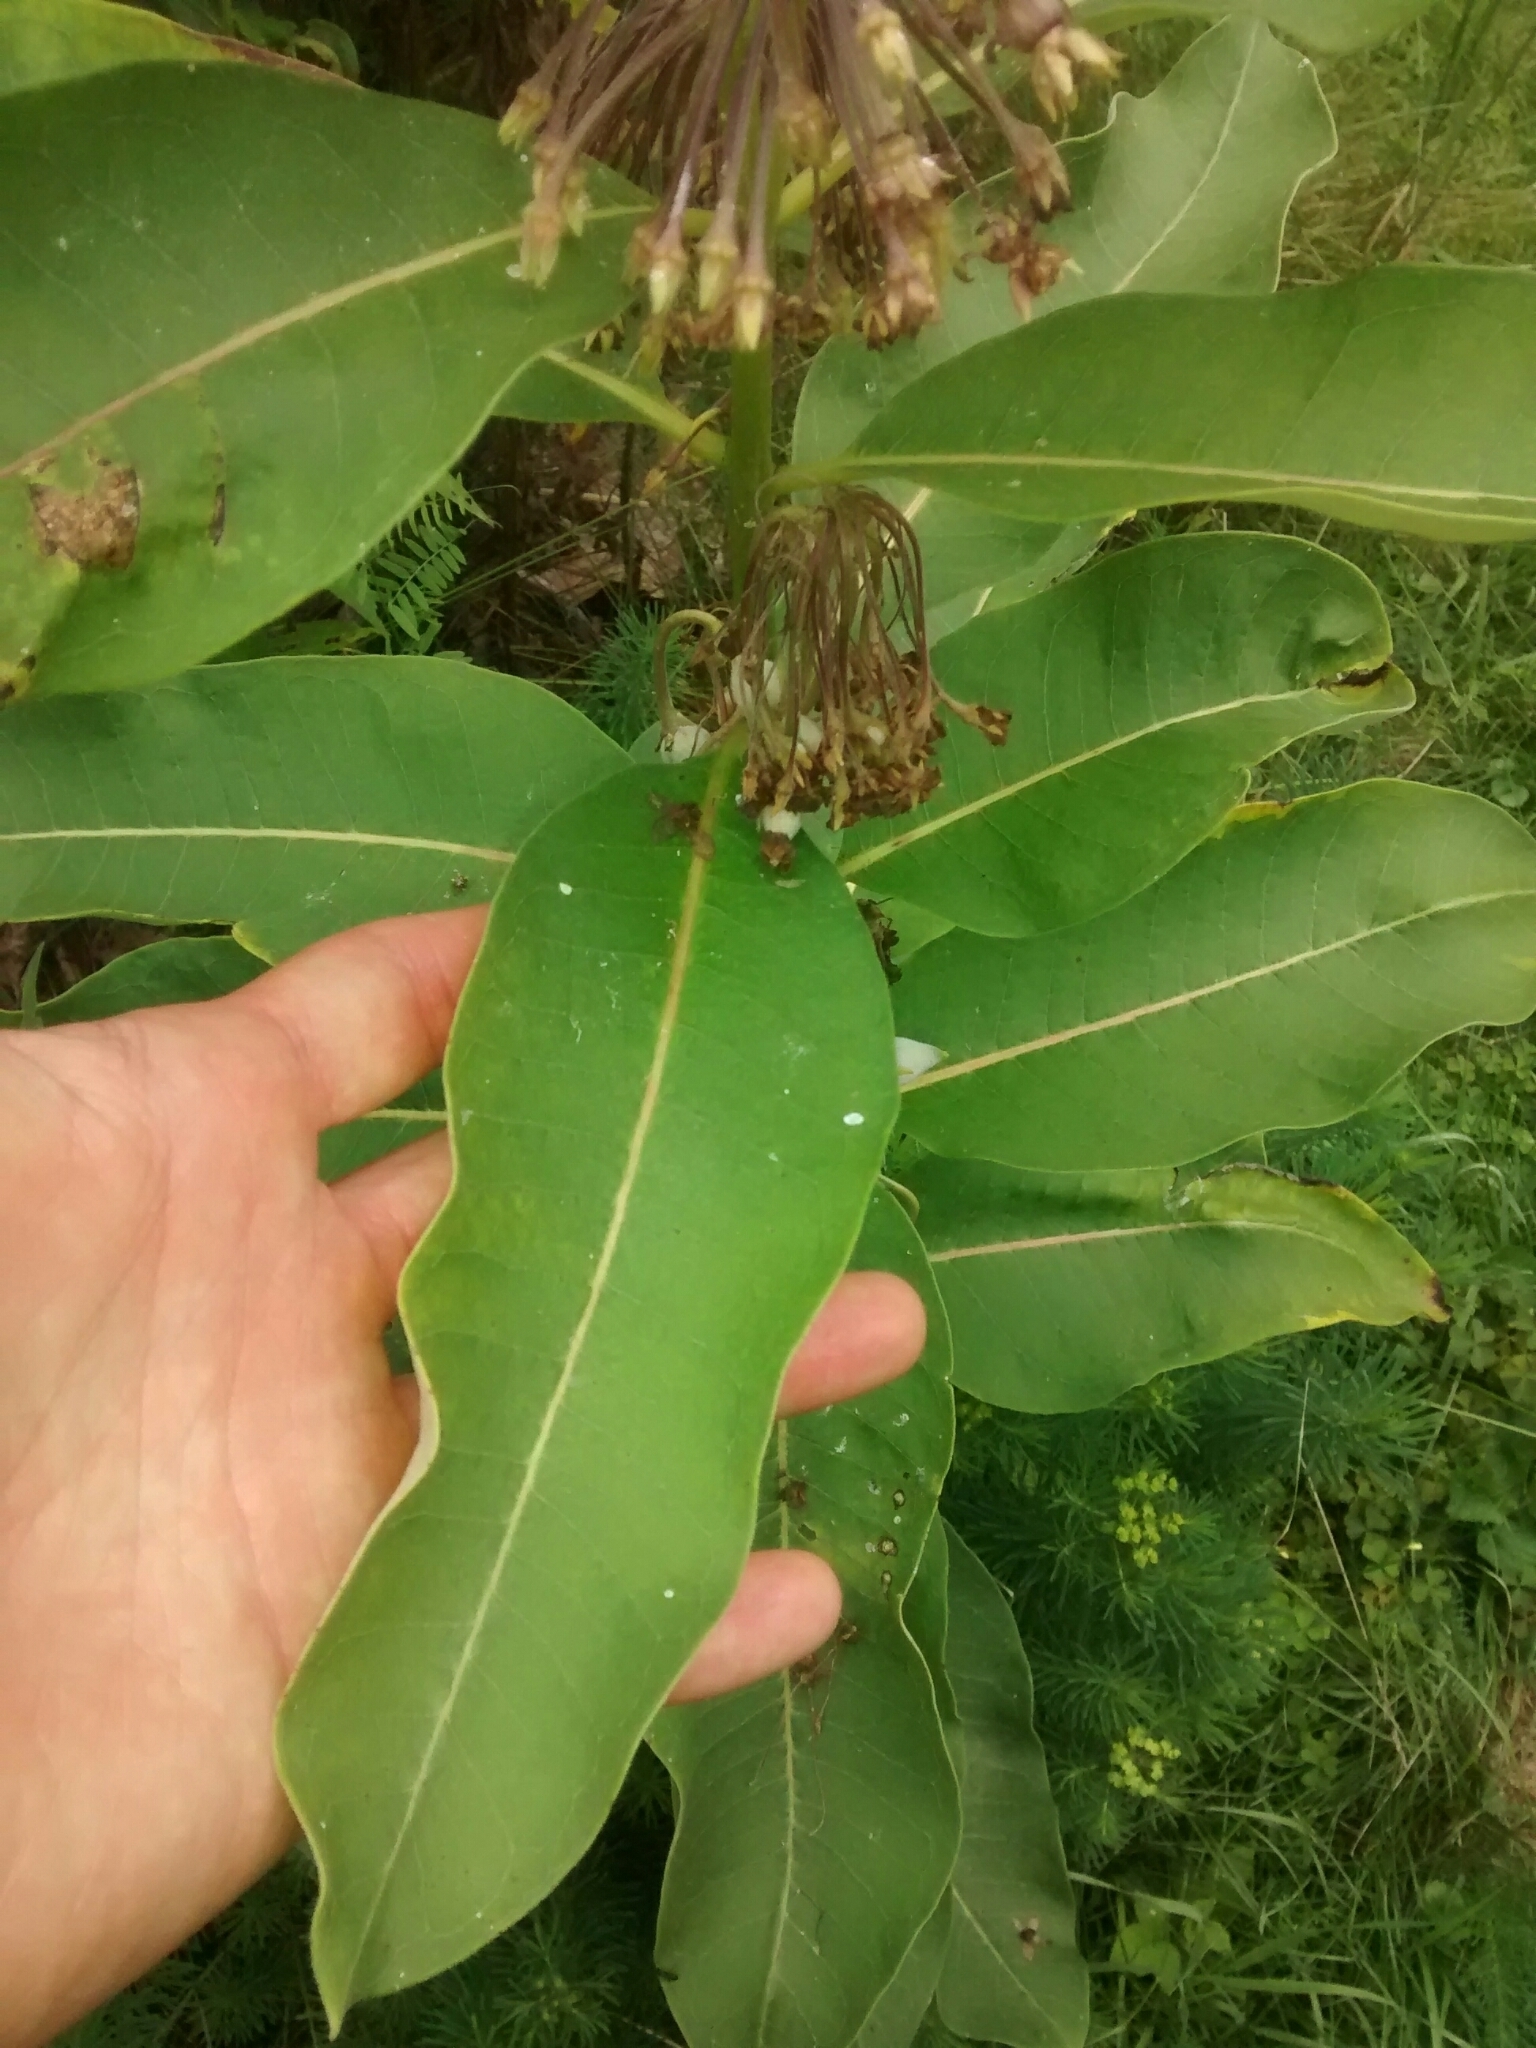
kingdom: Plantae
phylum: Tracheophyta
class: Magnoliopsida
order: Gentianales
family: Apocynaceae
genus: Asclepias
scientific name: Asclepias syriaca
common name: Common milkweed
